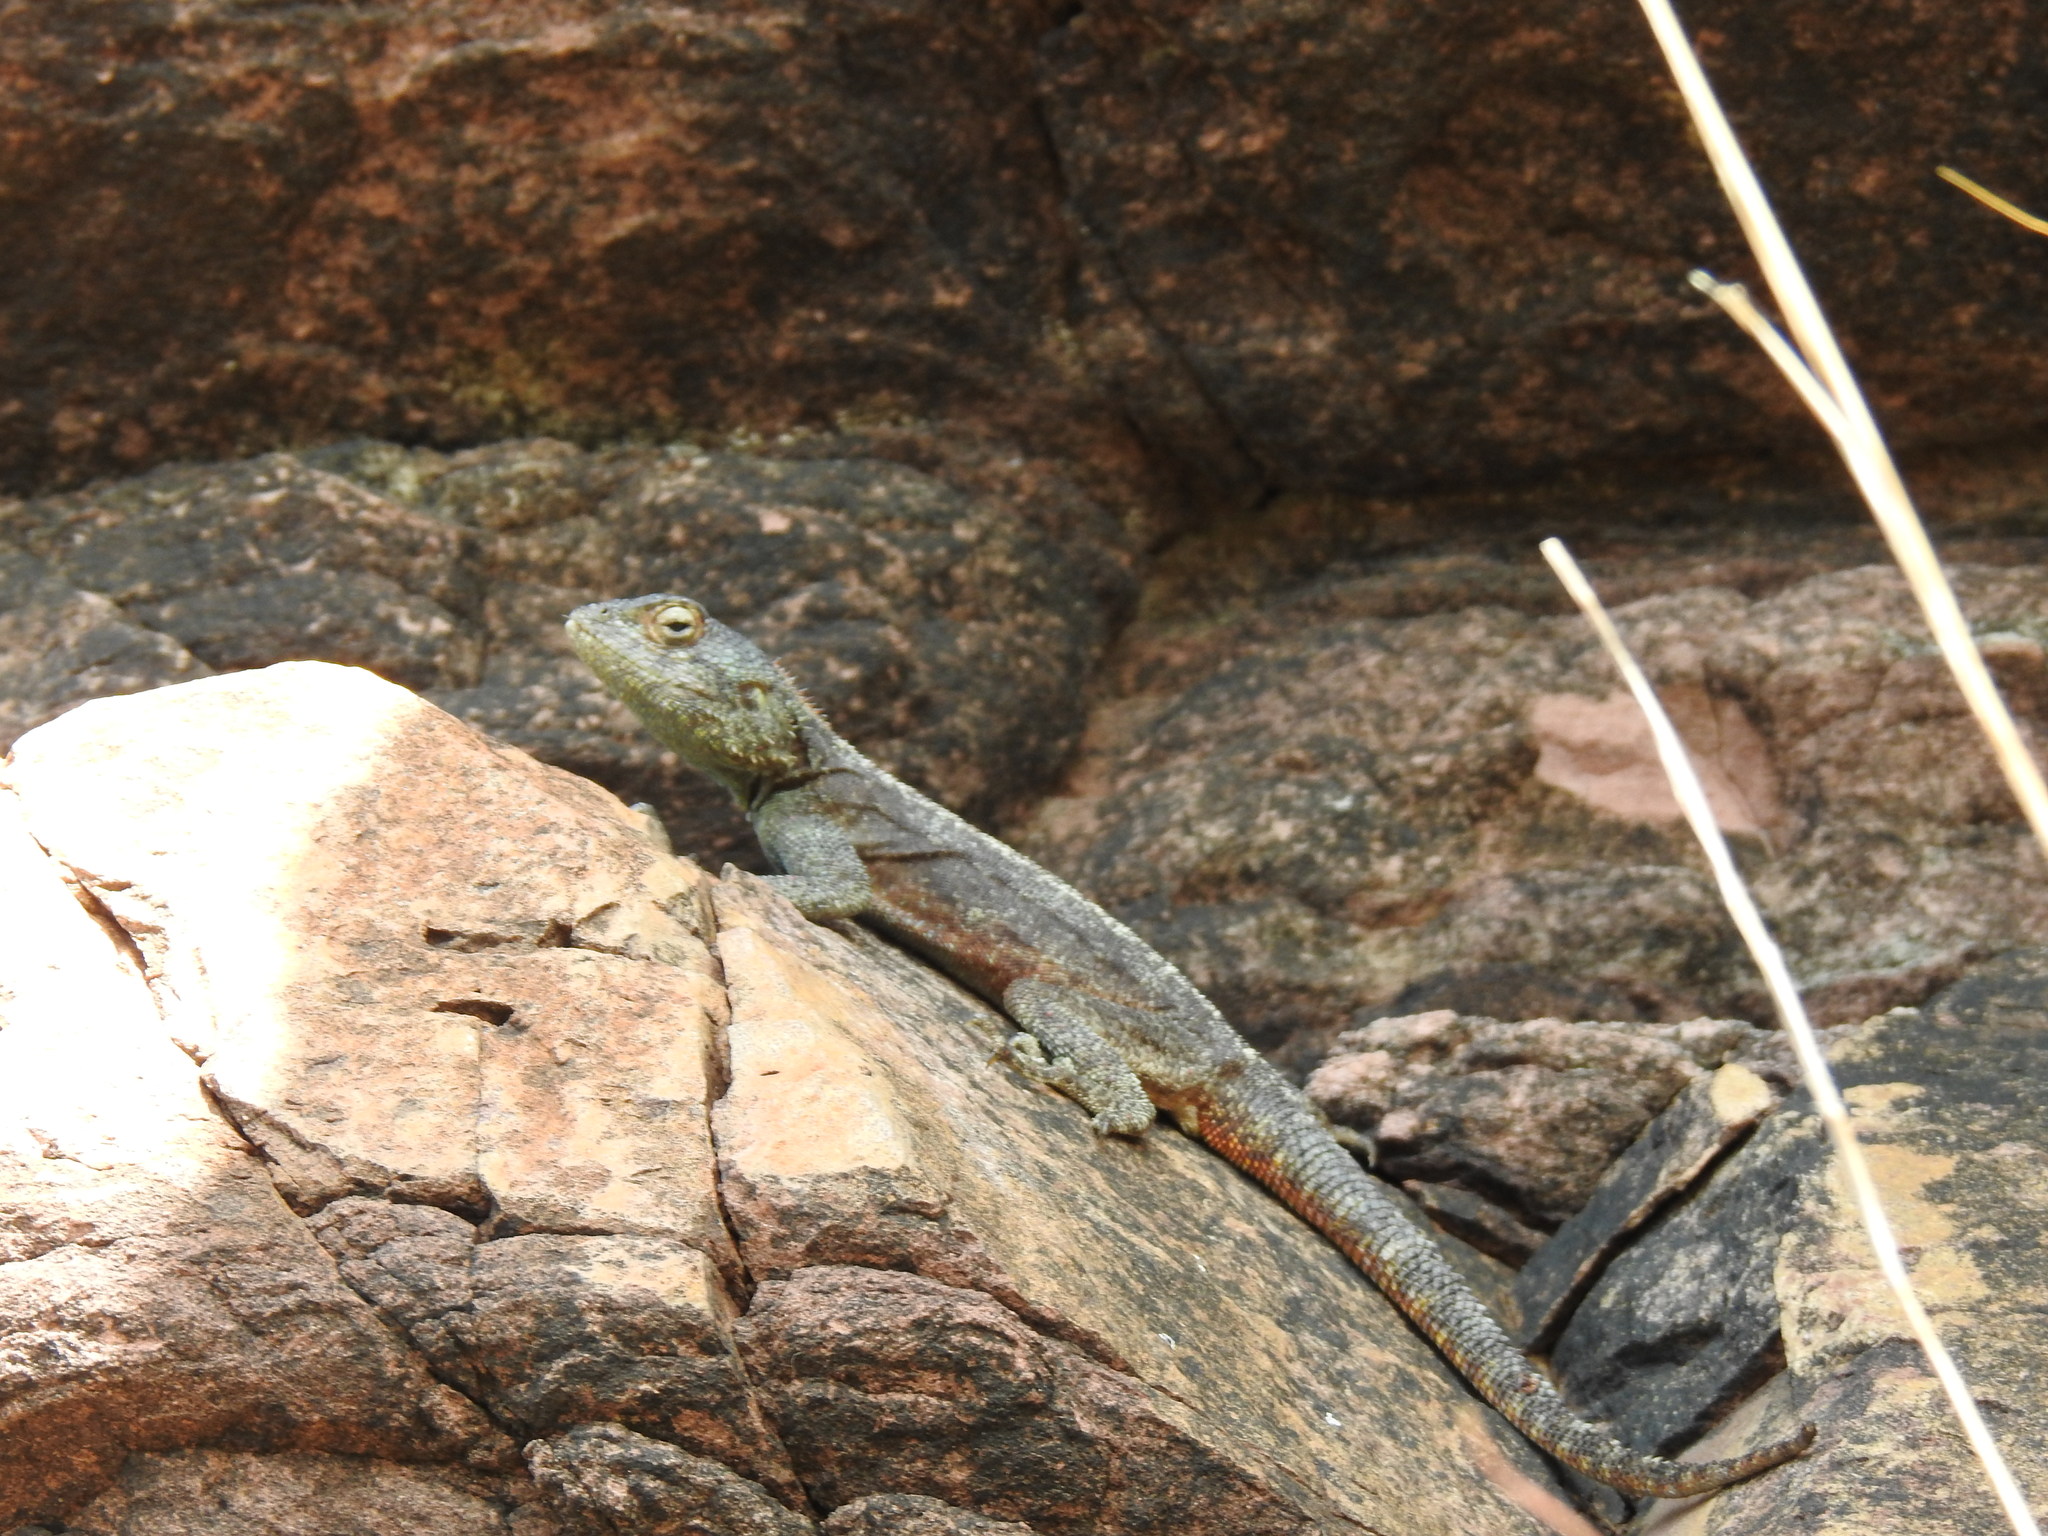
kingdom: Animalia
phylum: Chordata
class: Squamata
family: Agamidae
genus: Agama
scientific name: Agama atra
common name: Southern african rock agama
